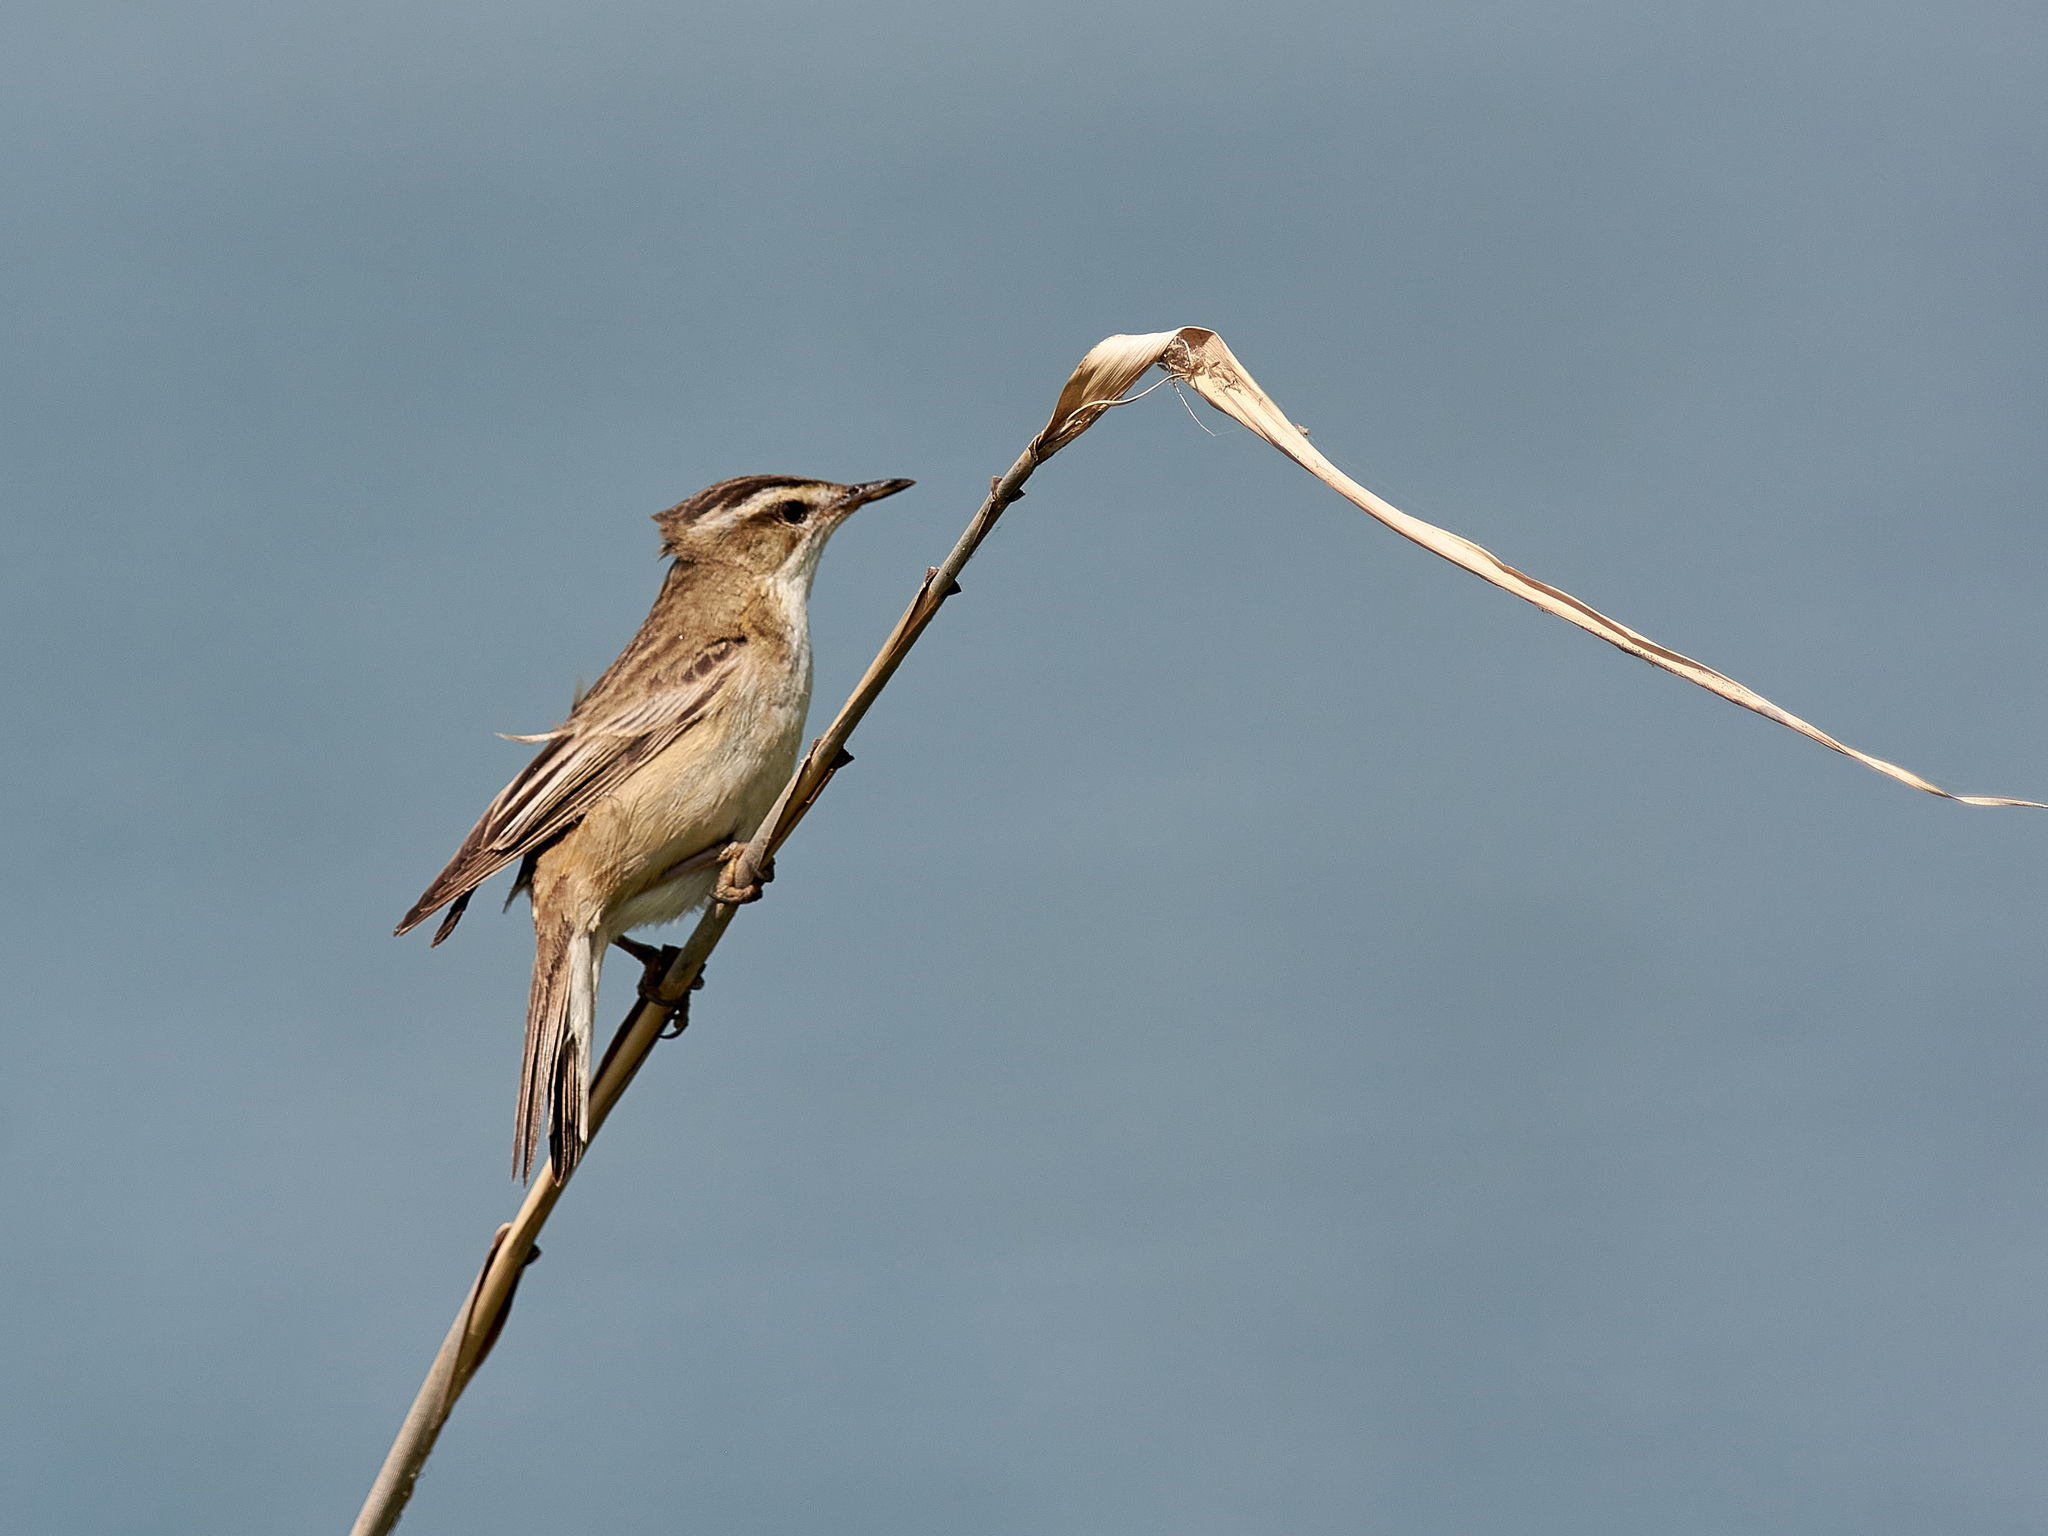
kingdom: Animalia
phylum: Chordata
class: Aves
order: Passeriformes
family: Acrocephalidae
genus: Acrocephalus
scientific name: Acrocephalus schoenobaenus
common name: Sedge warbler
